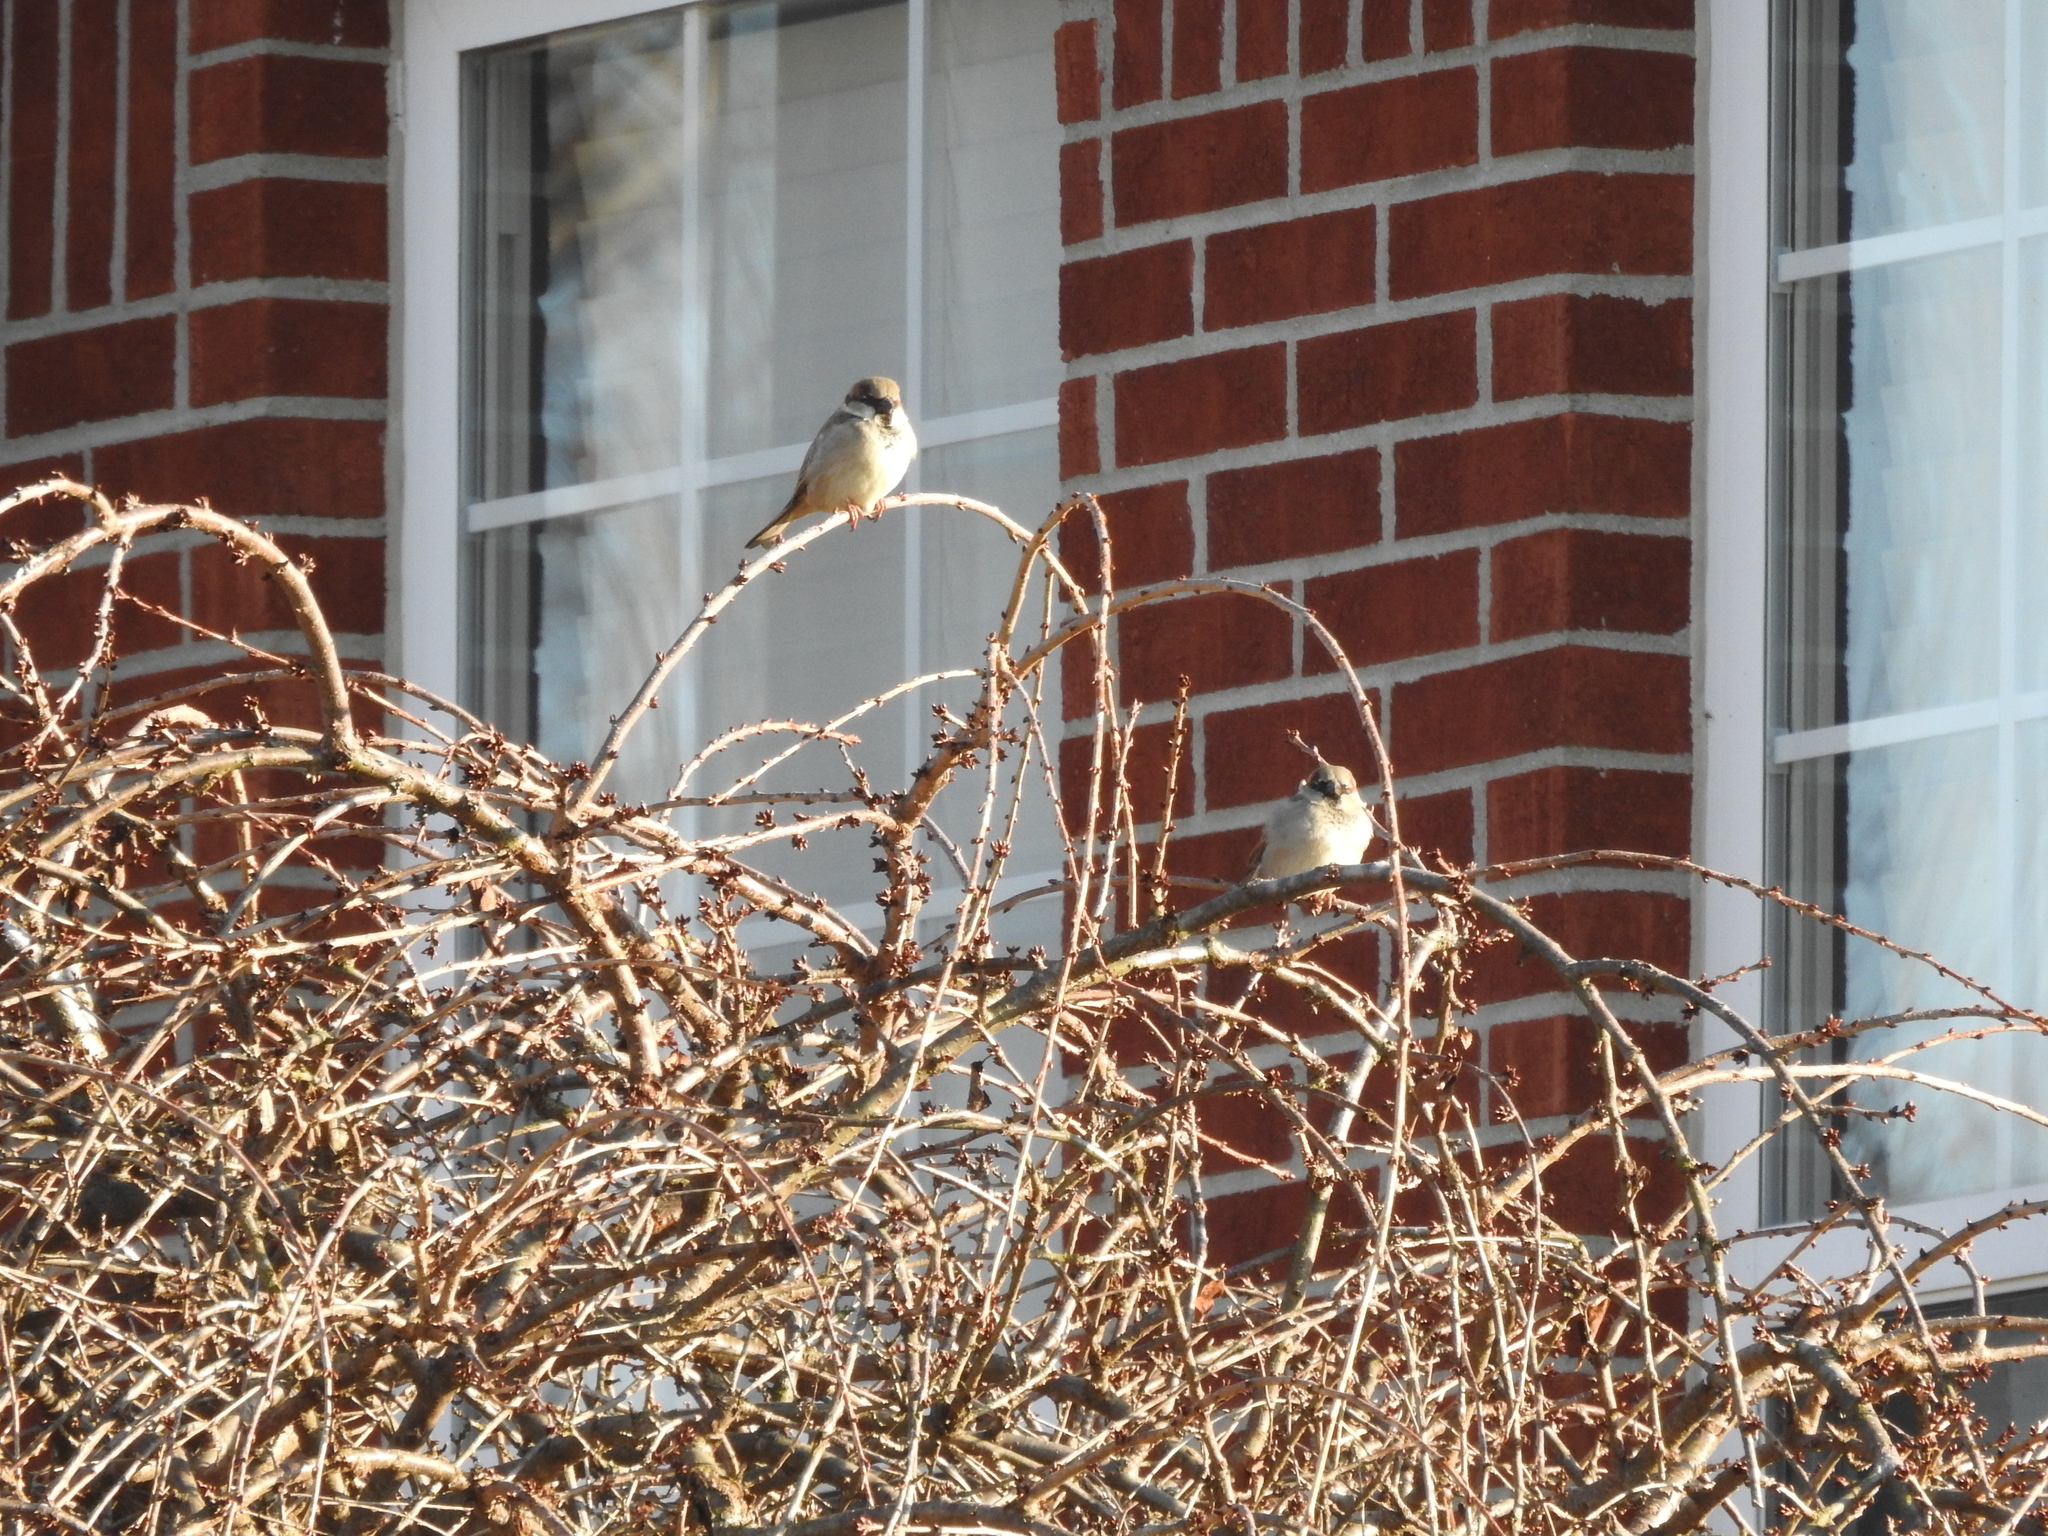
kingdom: Animalia
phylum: Chordata
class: Aves
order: Passeriformes
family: Passeridae
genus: Passer
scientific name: Passer domesticus
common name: House sparrow
